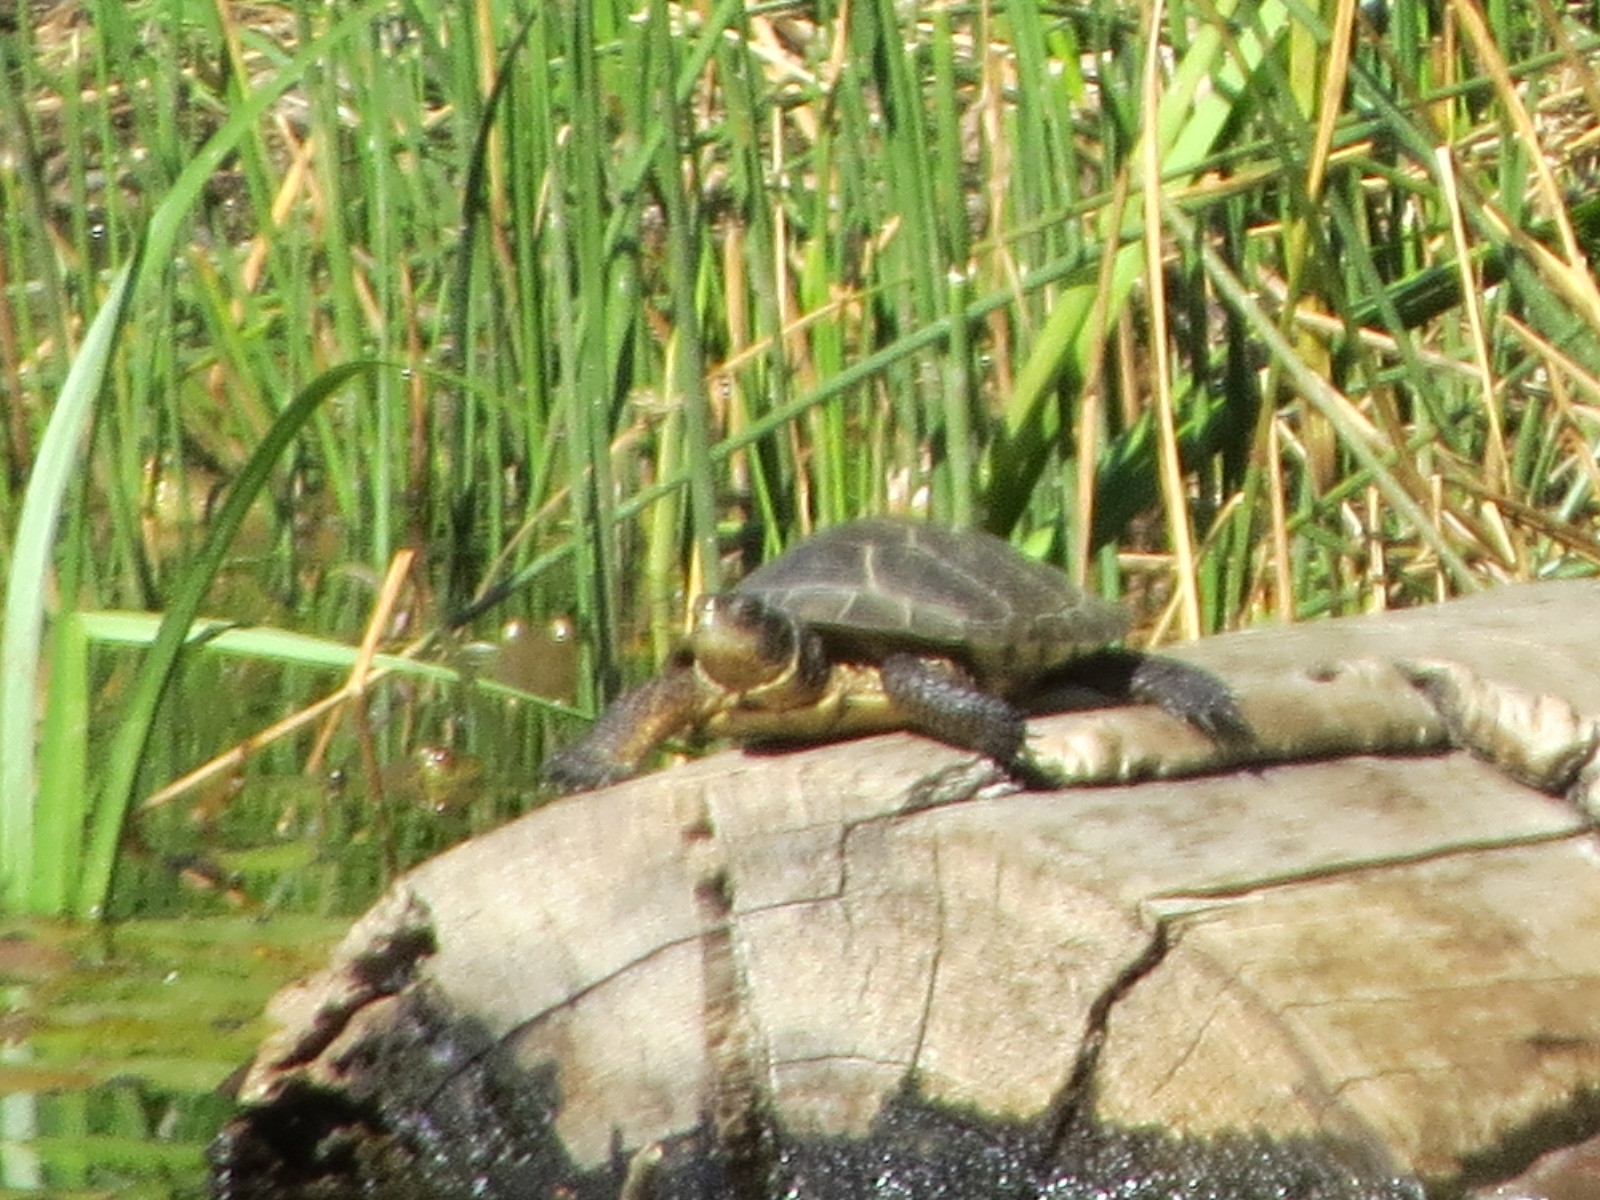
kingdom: Animalia
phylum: Chordata
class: Testudines
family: Emydidae
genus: Actinemys
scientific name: Actinemys marmorata
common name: Western pond turtle
